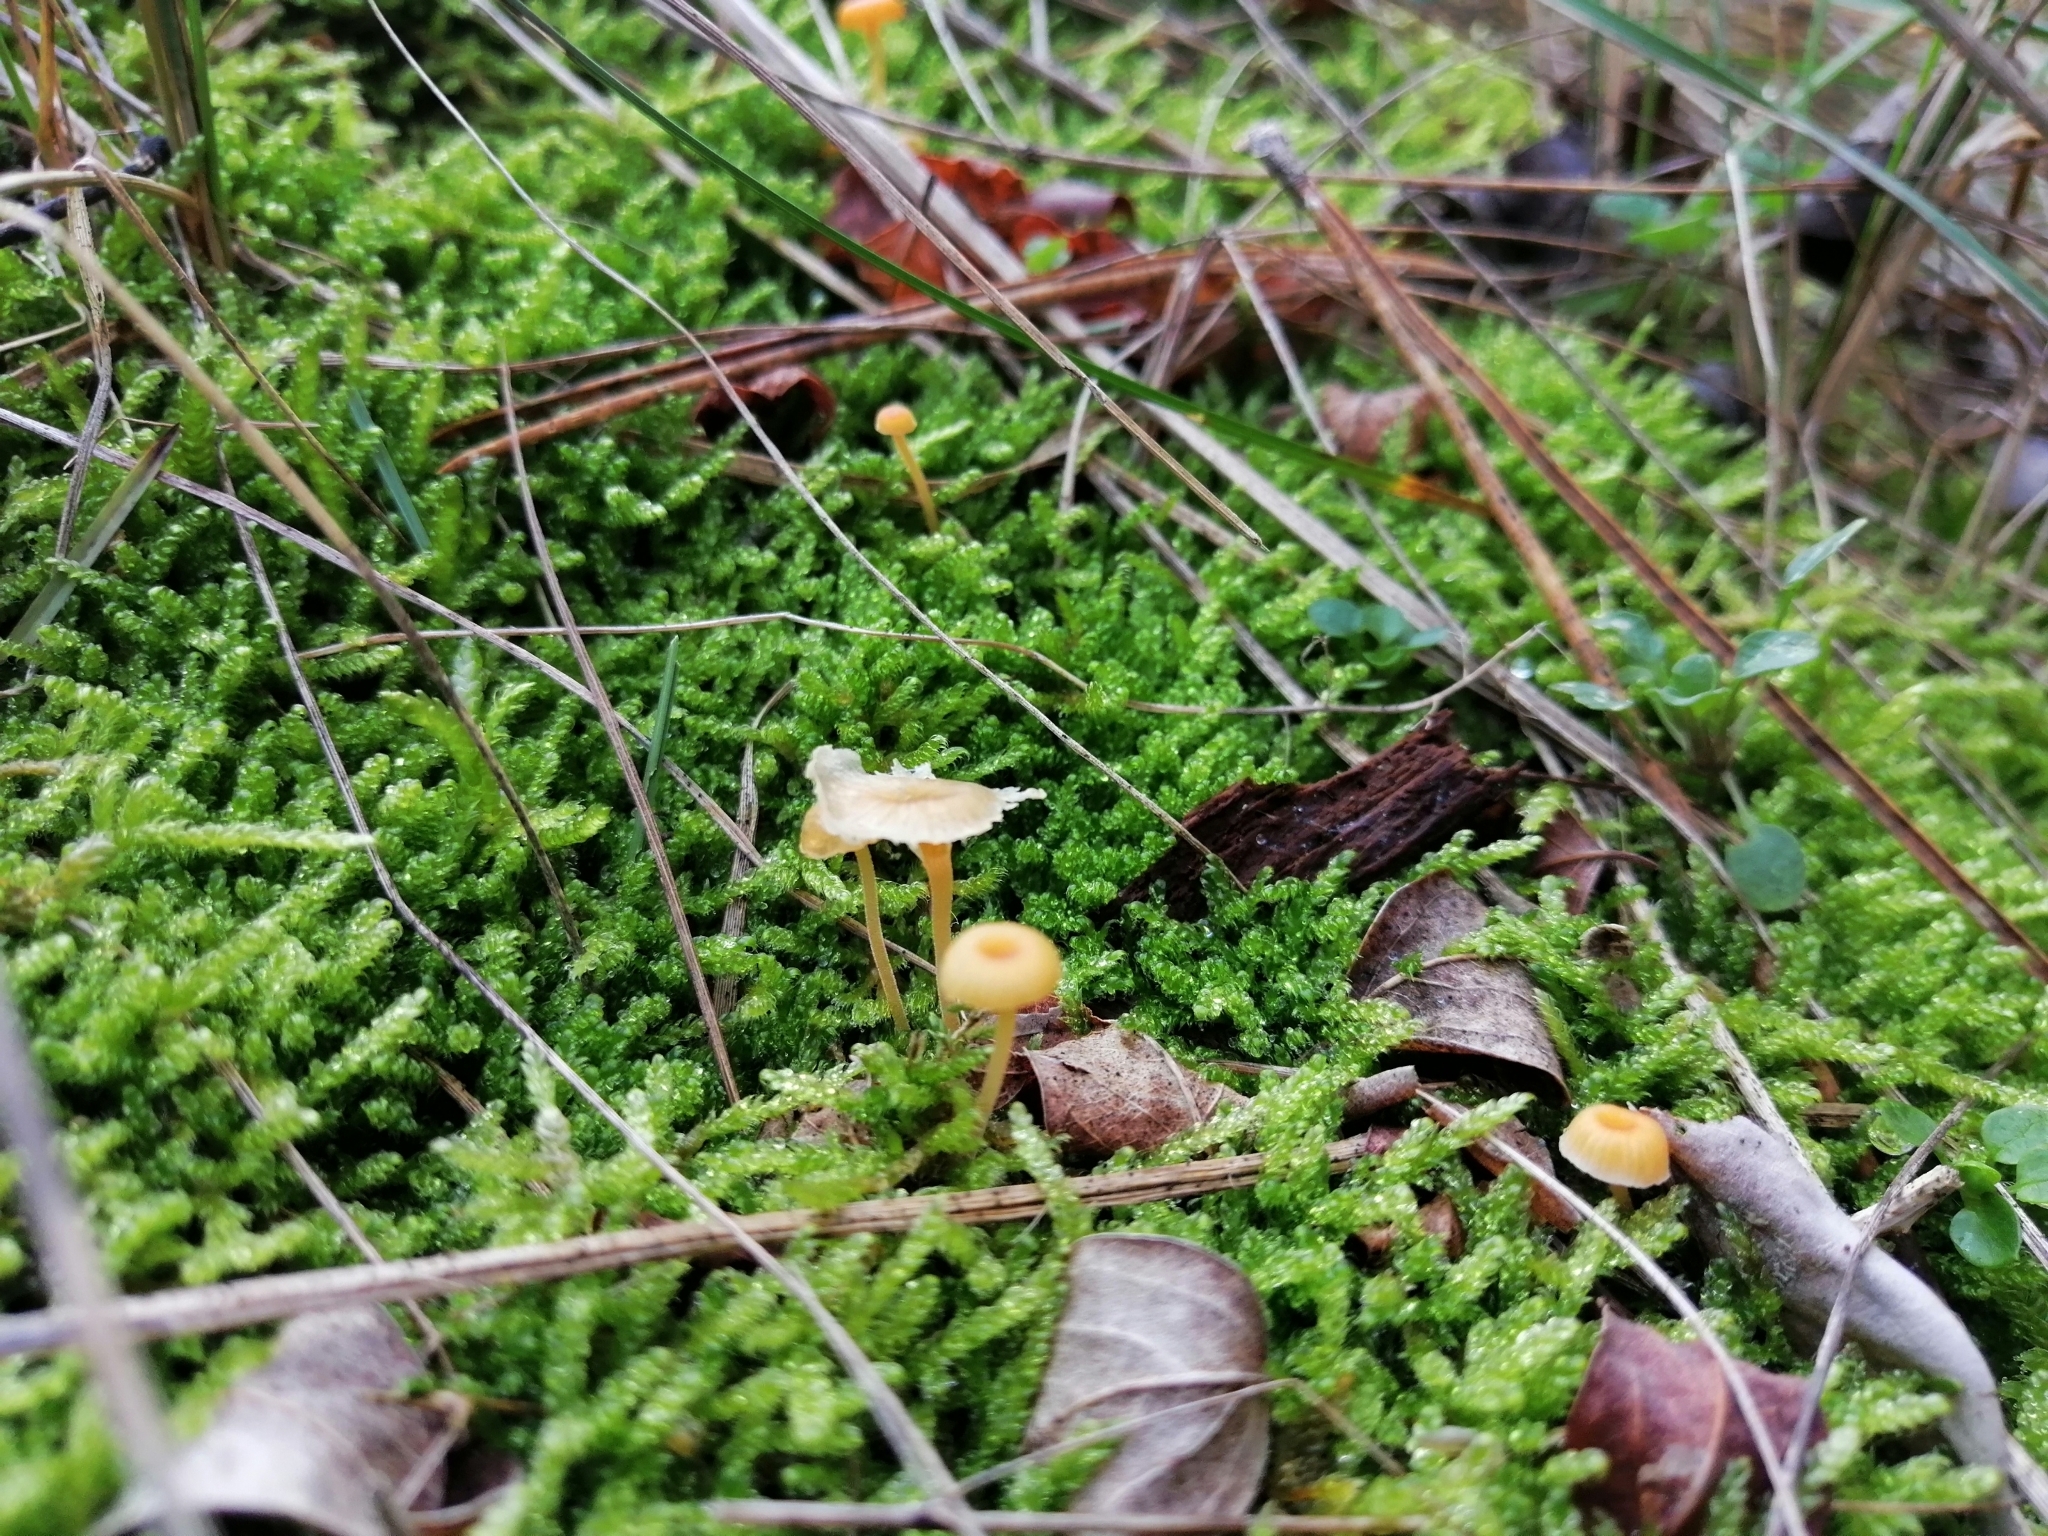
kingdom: Fungi
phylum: Basidiomycota
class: Agaricomycetes
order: Hymenochaetales
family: Rickenellaceae
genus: Rickenella
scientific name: Rickenella fibula
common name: Orange mosscap
